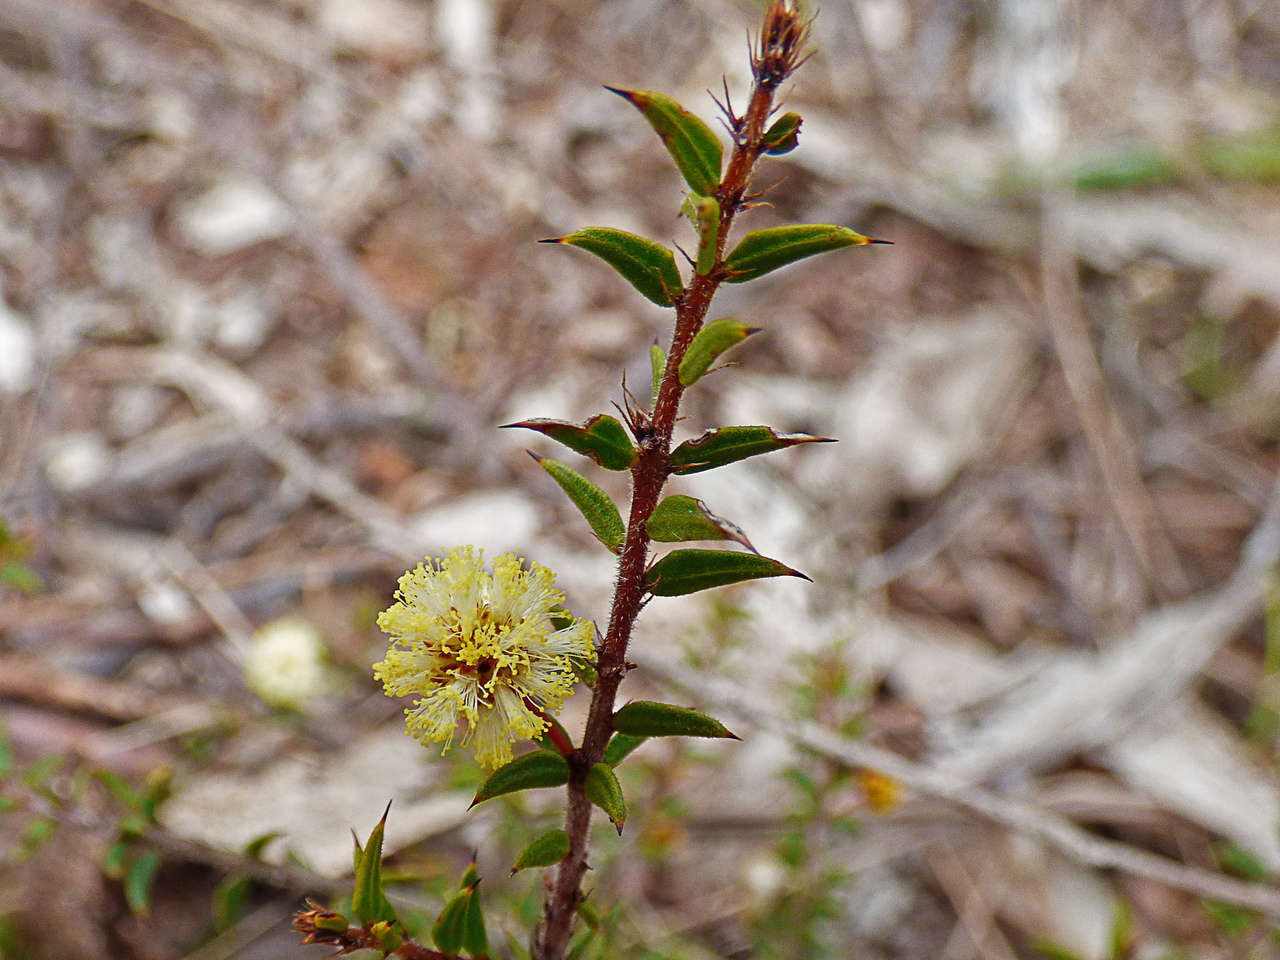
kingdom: Plantae
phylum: Tracheophyta
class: Magnoliopsida
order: Fabales
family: Fabaceae
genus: Acacia
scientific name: Acacia gunnii
